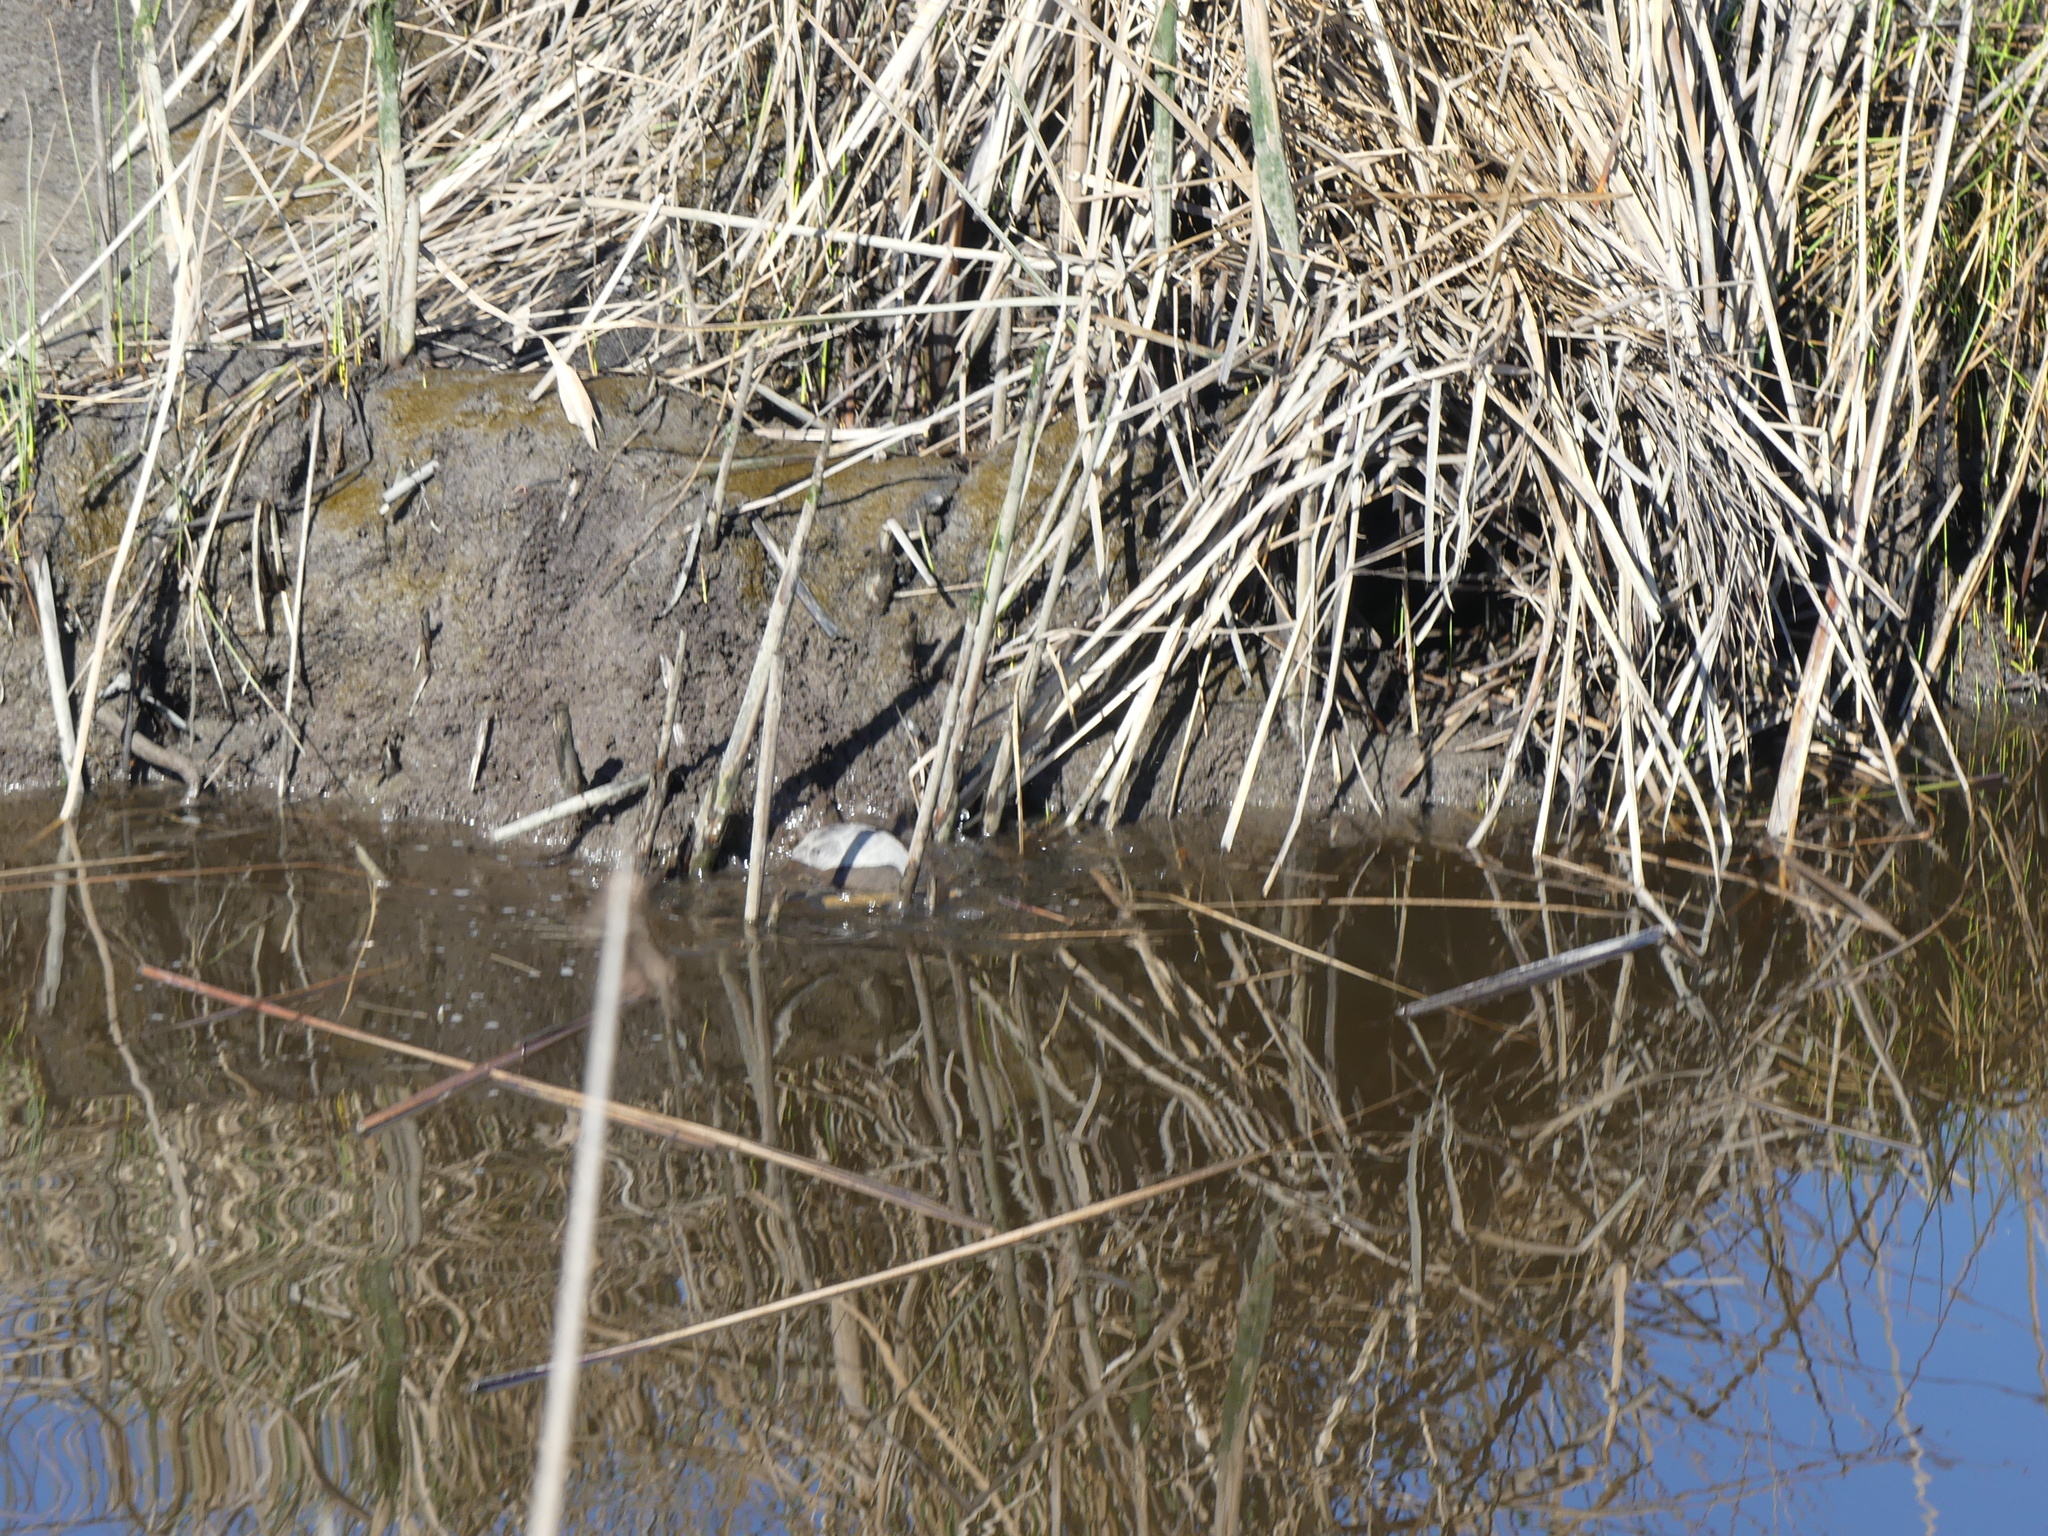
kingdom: Animalia
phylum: Chordata
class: Testudines
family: Emydidae
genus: Actinemys
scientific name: Actinemys marmorata
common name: Western pond turtle
